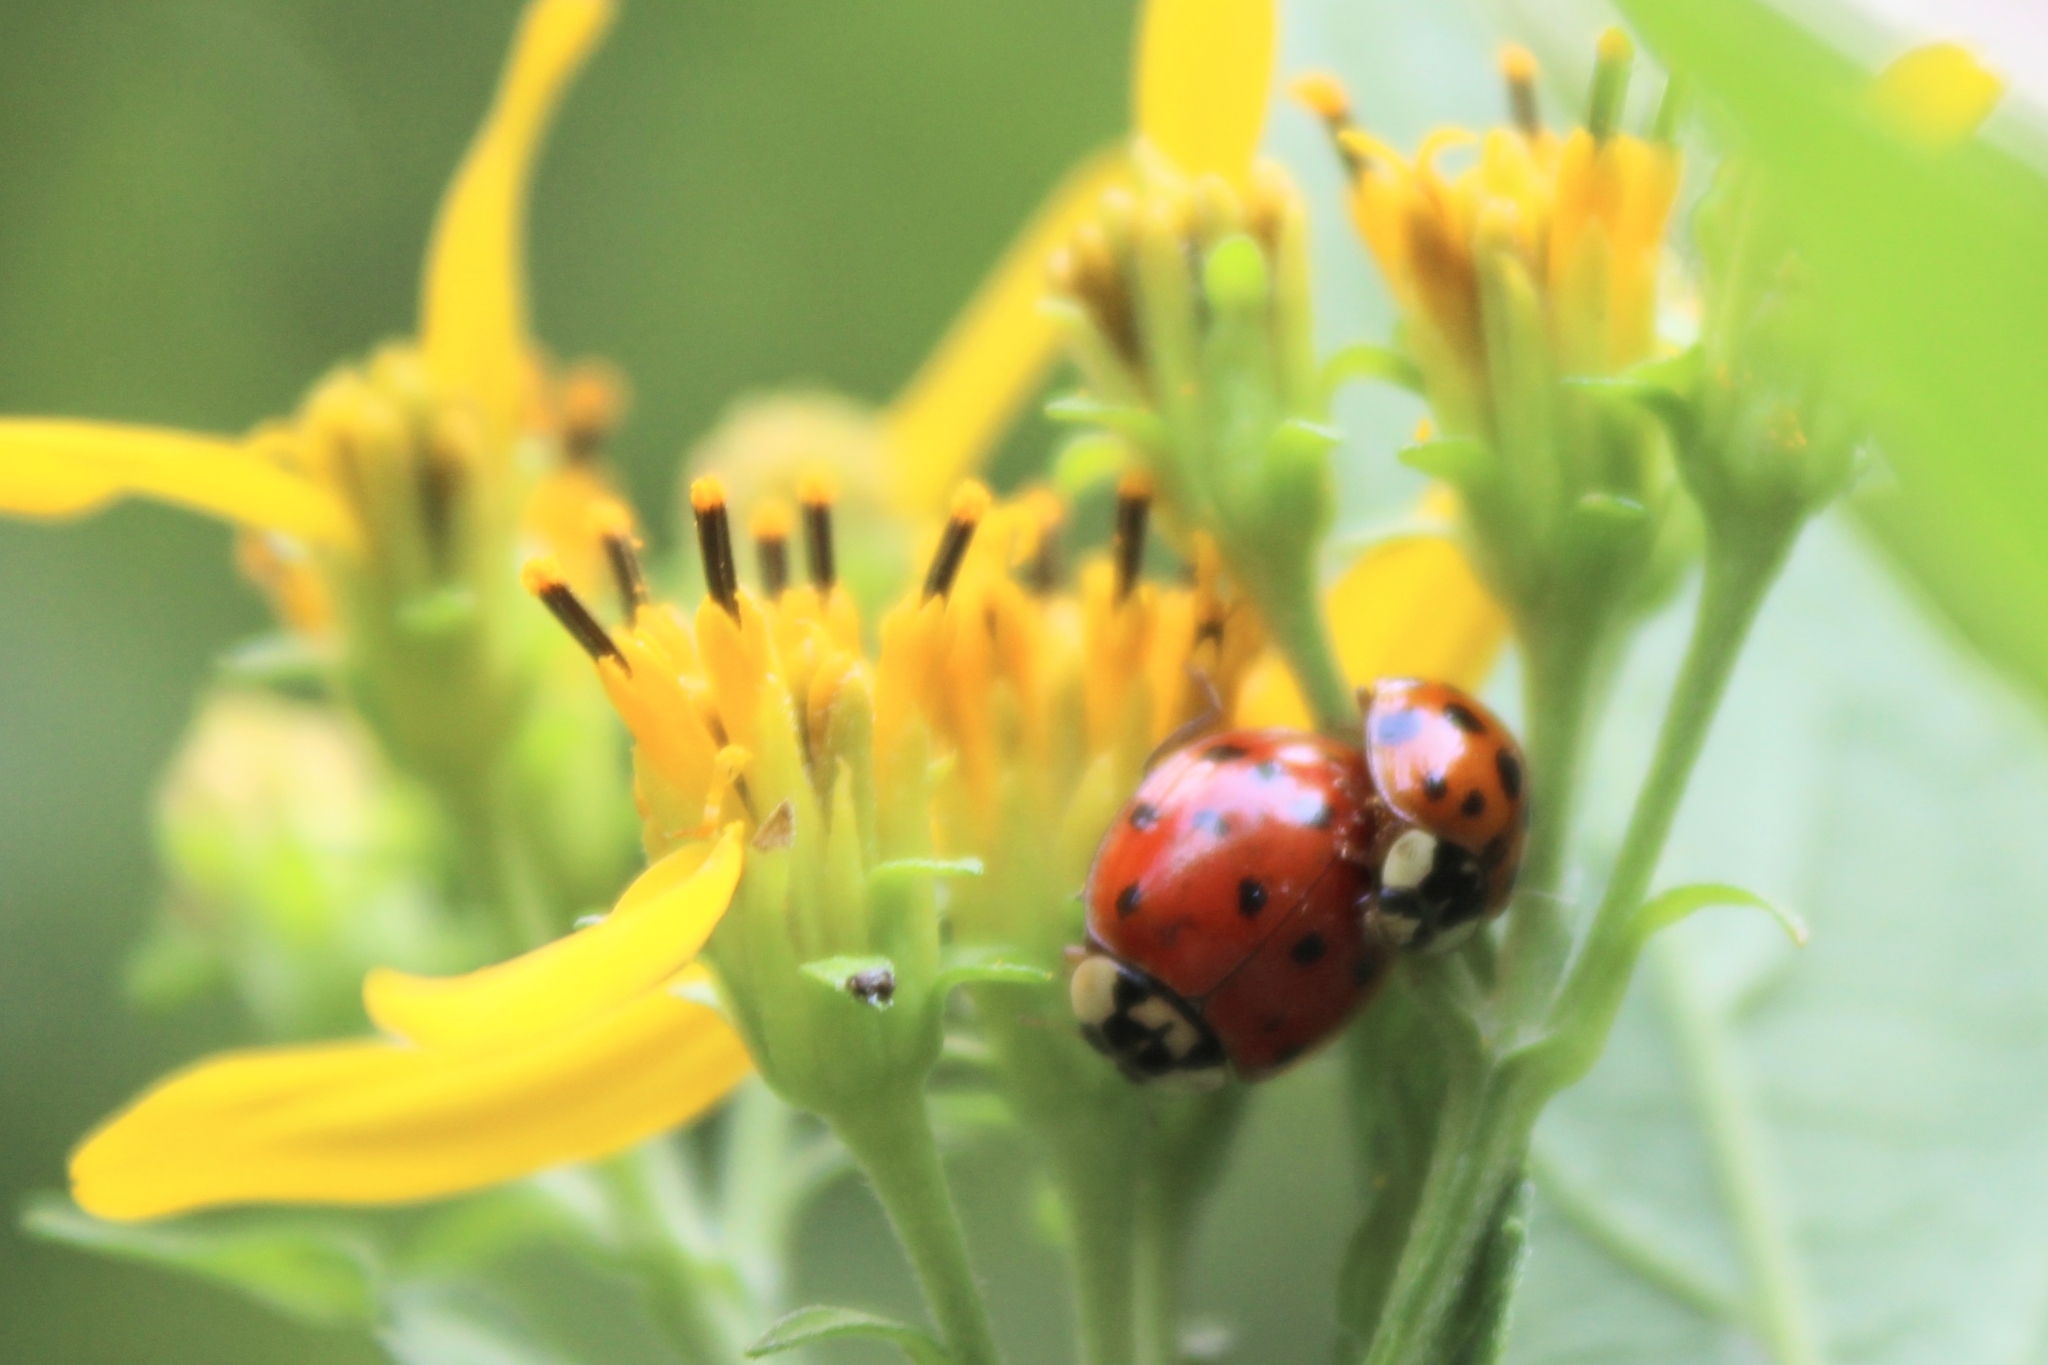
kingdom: Animalia
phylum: Arthropoda
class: Insecta
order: Coleoptera
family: Coccinellidae
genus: Harmonia
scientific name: Harmonia axyridis
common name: Harlequin ladybird
